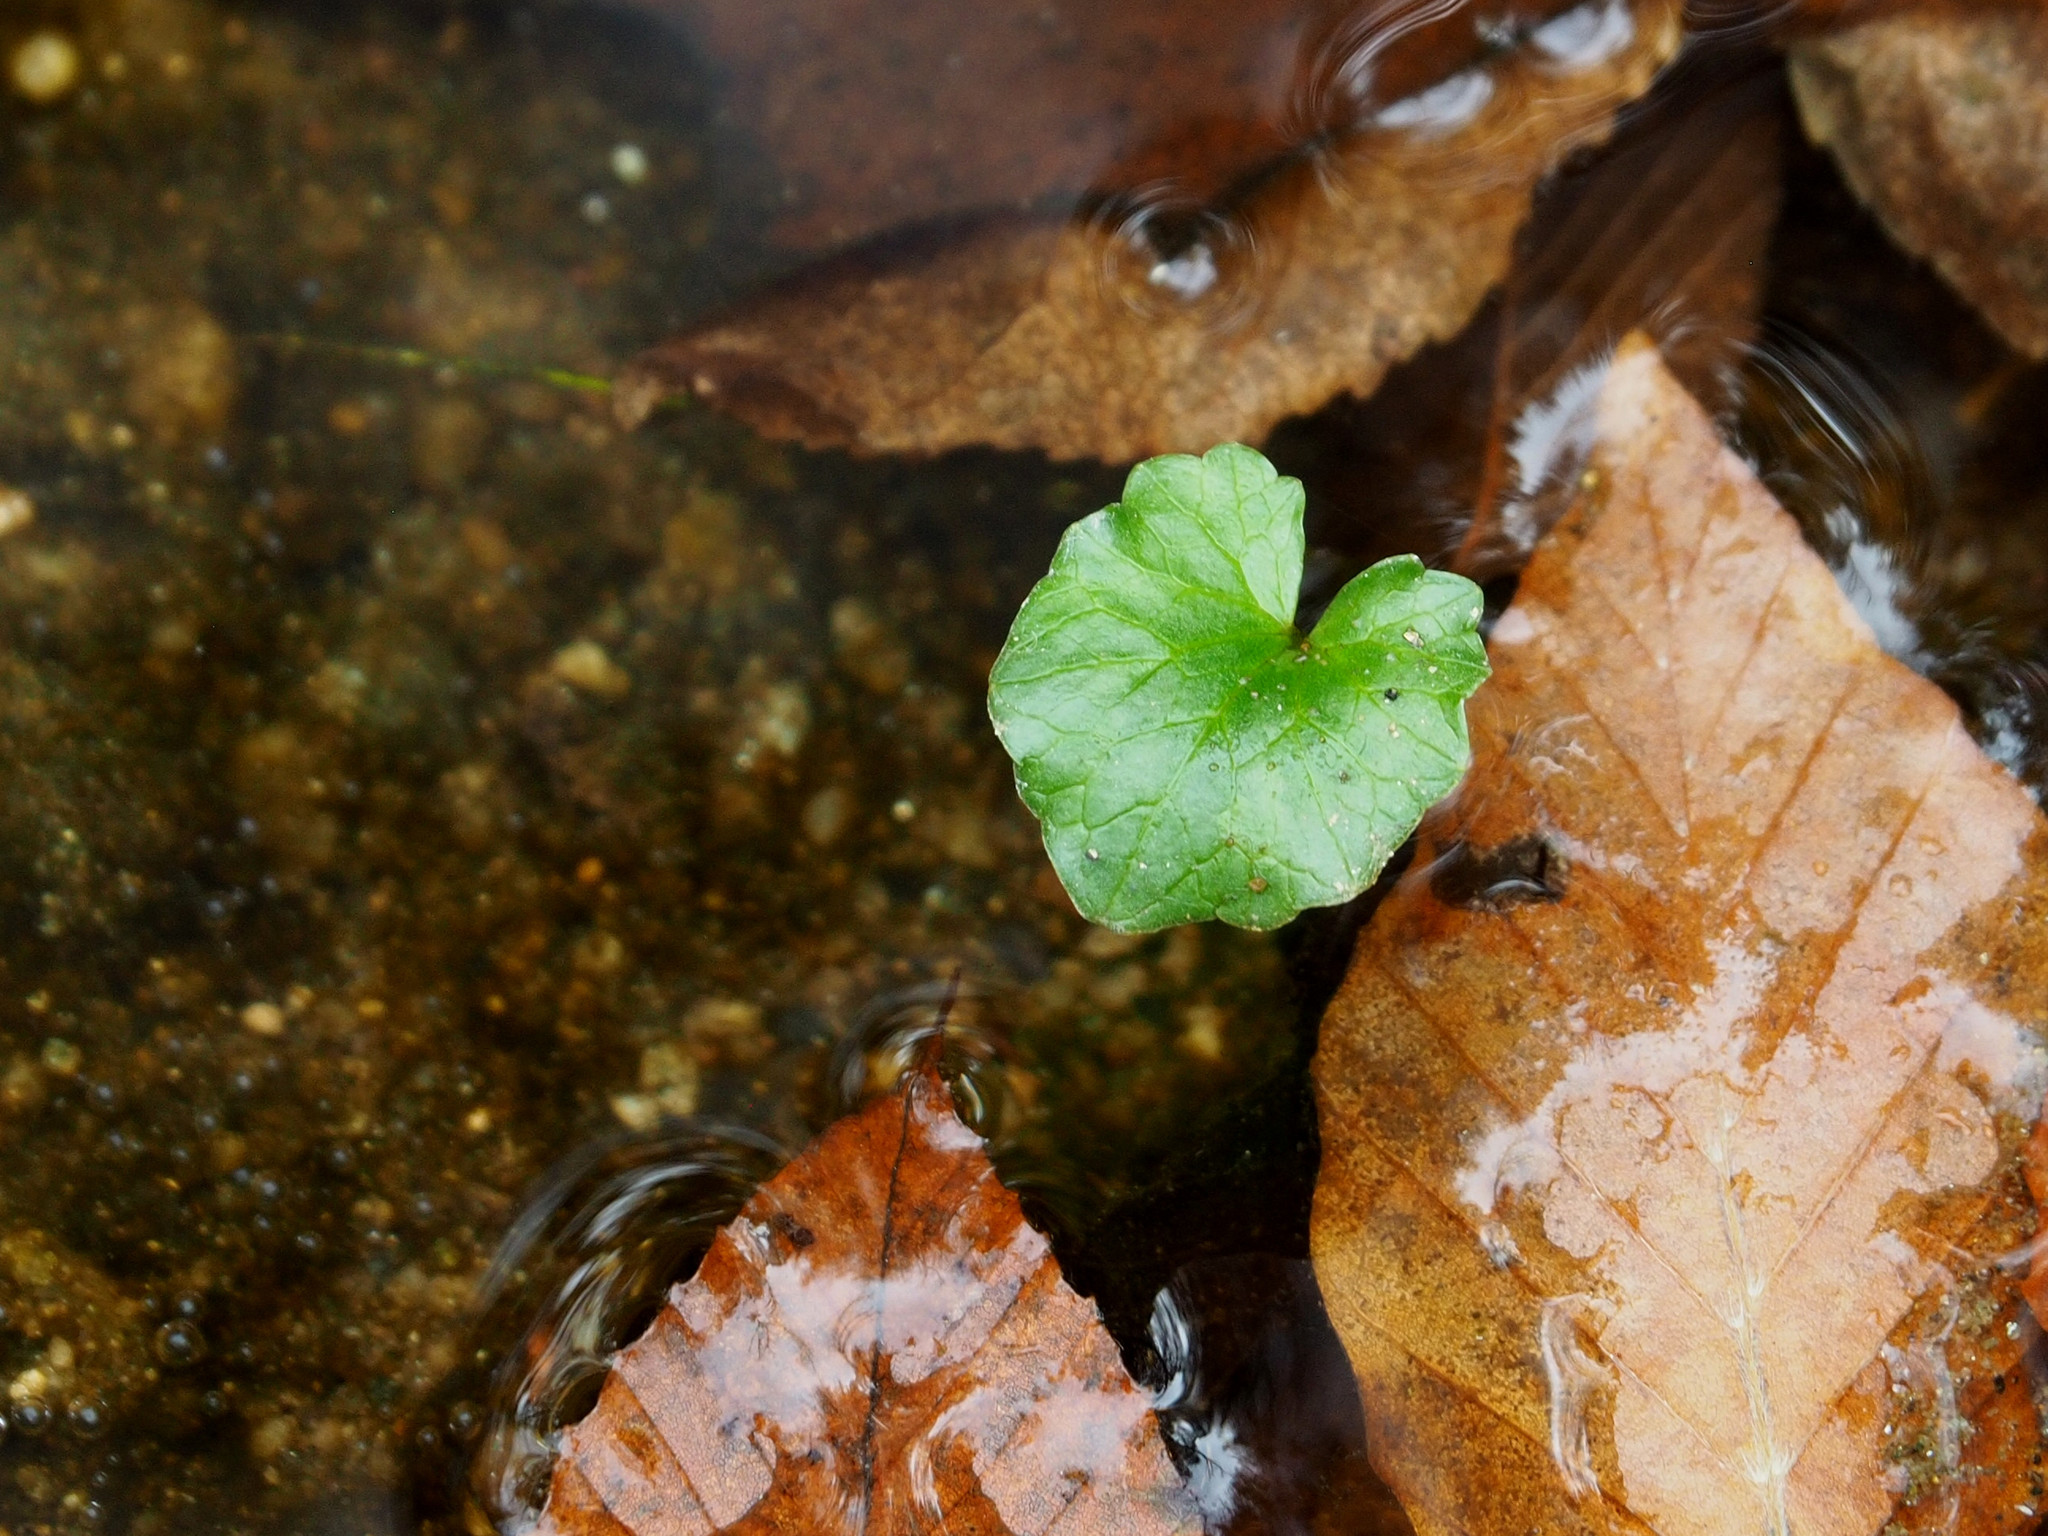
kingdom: Plantae
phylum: Tracheophyta
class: Magnoliopsida
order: Ranunculales
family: Ranunculaceae
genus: Ficaria
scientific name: Ficaria verna
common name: Lesser celandine
